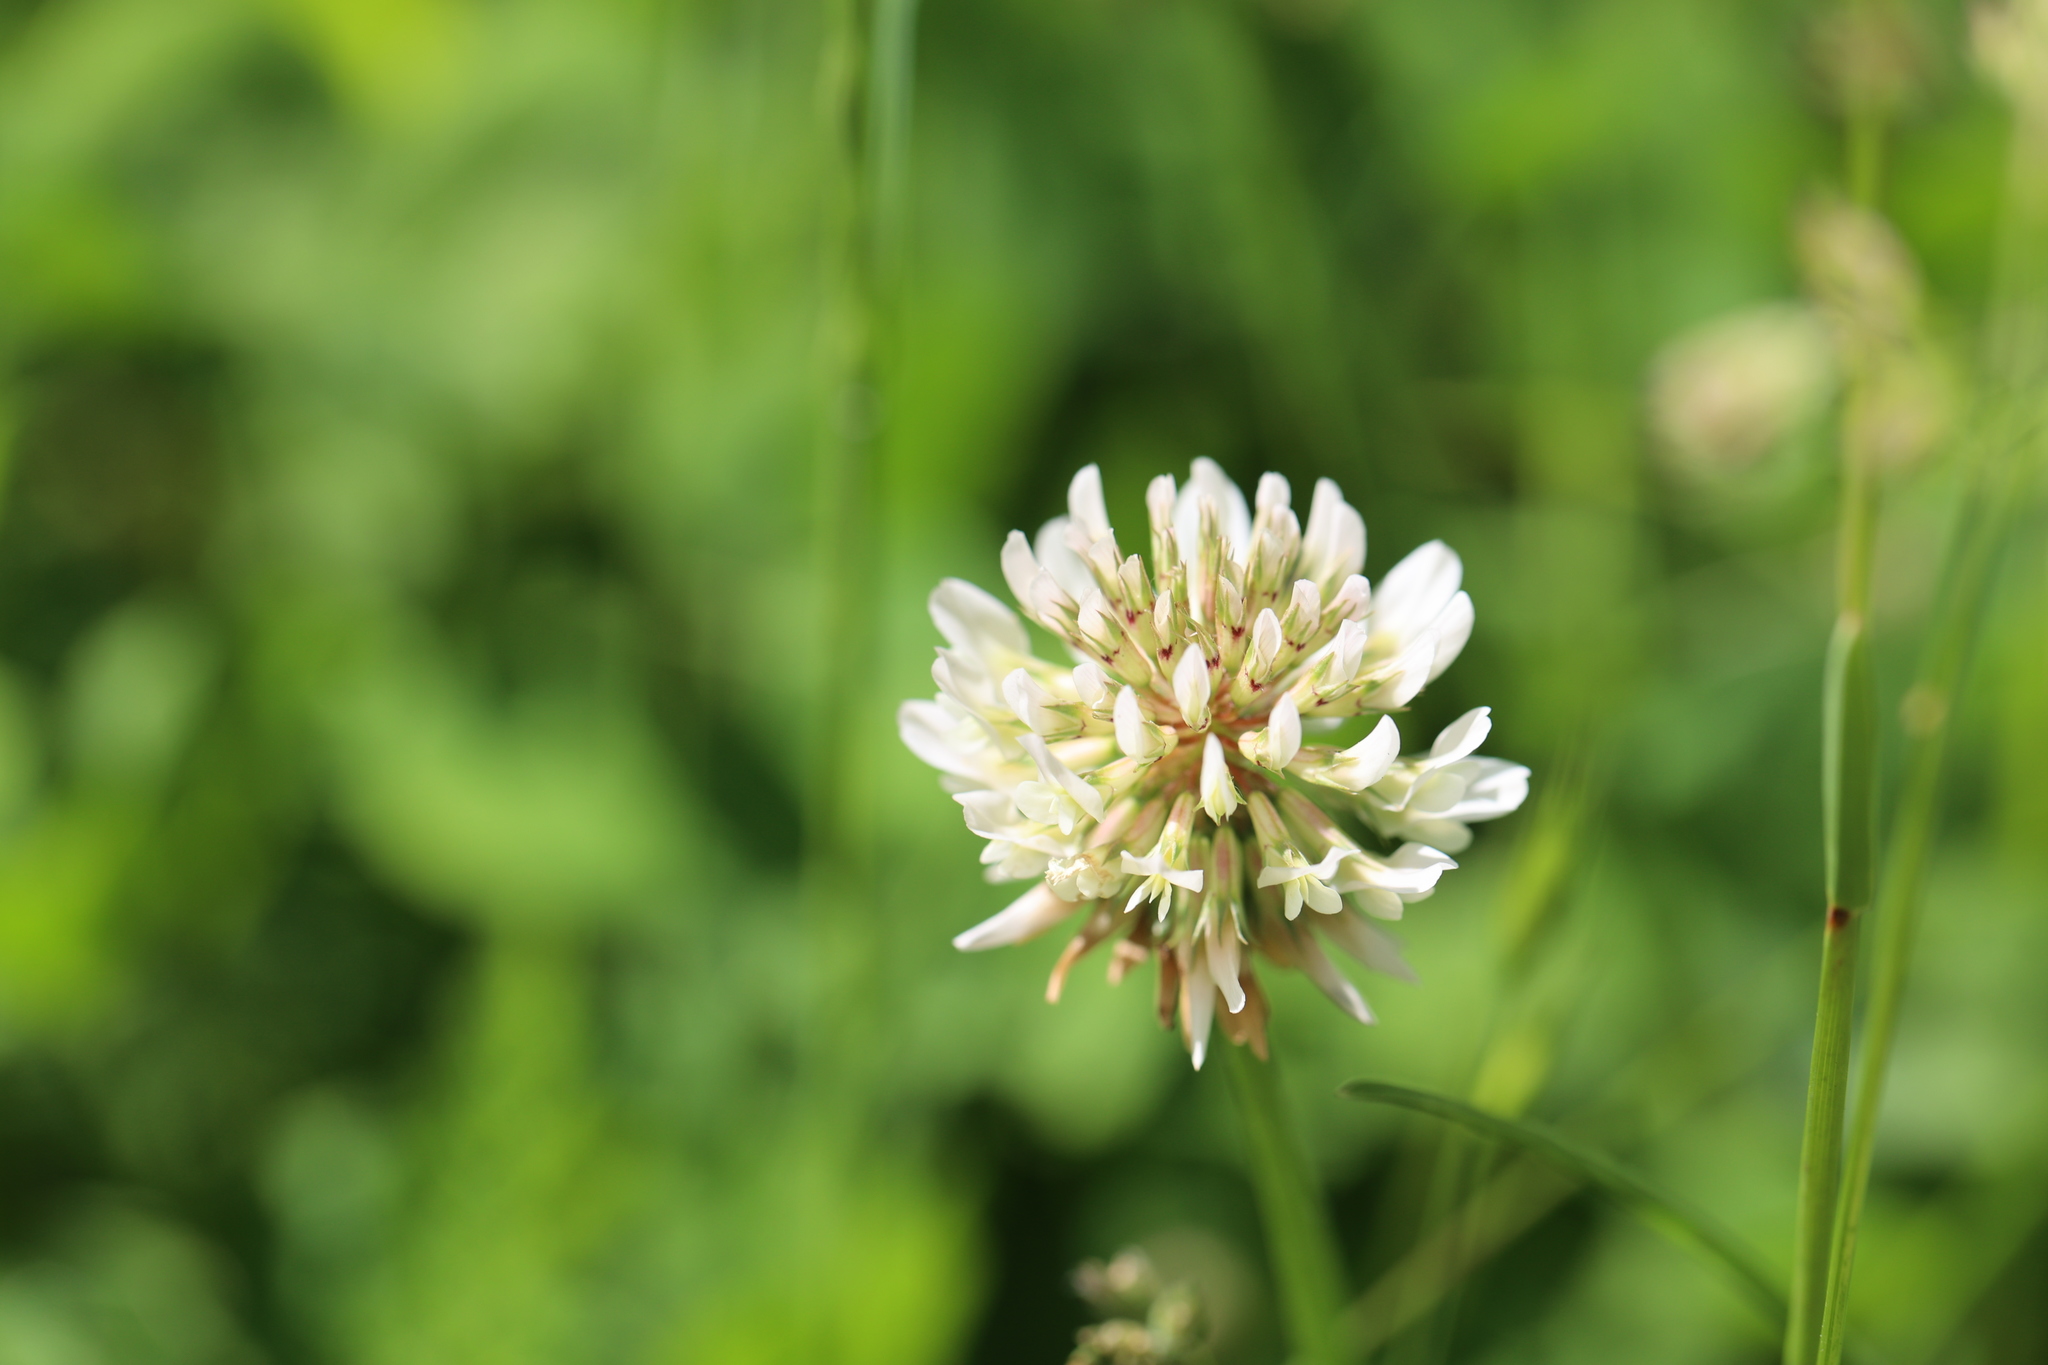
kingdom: Plantae
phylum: Tracheophyta
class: Magnoliopsida
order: Fabales
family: Fabaceae
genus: Trifolium
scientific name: Trifolium repens
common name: White clover
